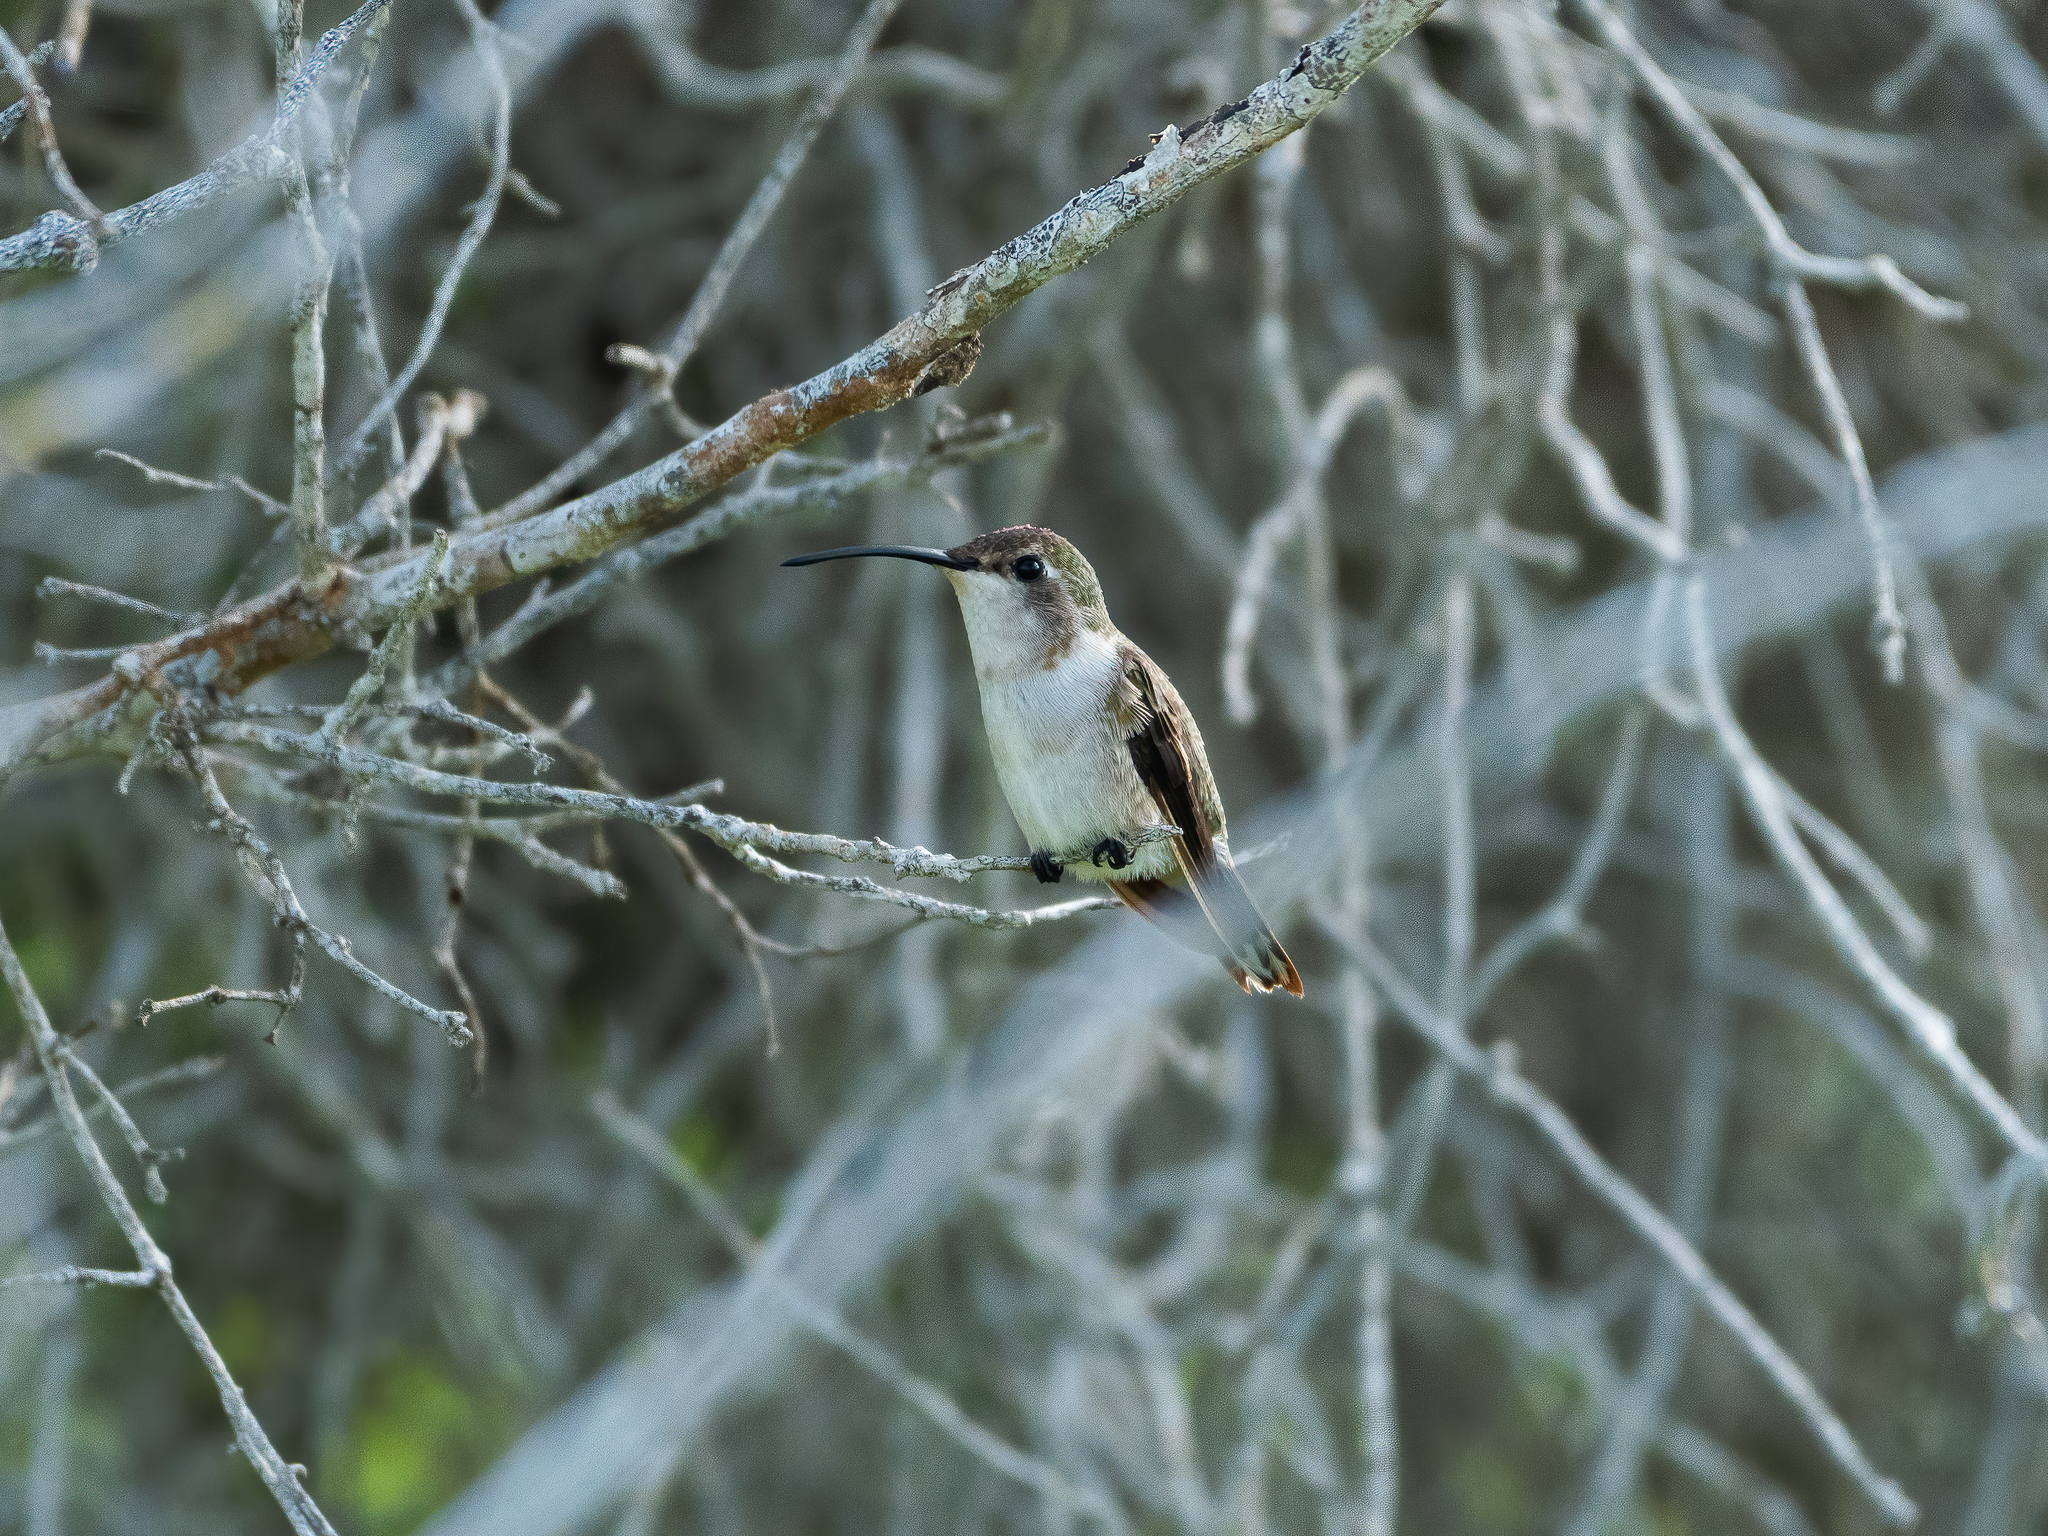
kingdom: Animalia
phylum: Chordata
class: Aves
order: Apodiformes
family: Trochilidae
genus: Doricha
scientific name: Doricha eliza
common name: Mexican sheartail
